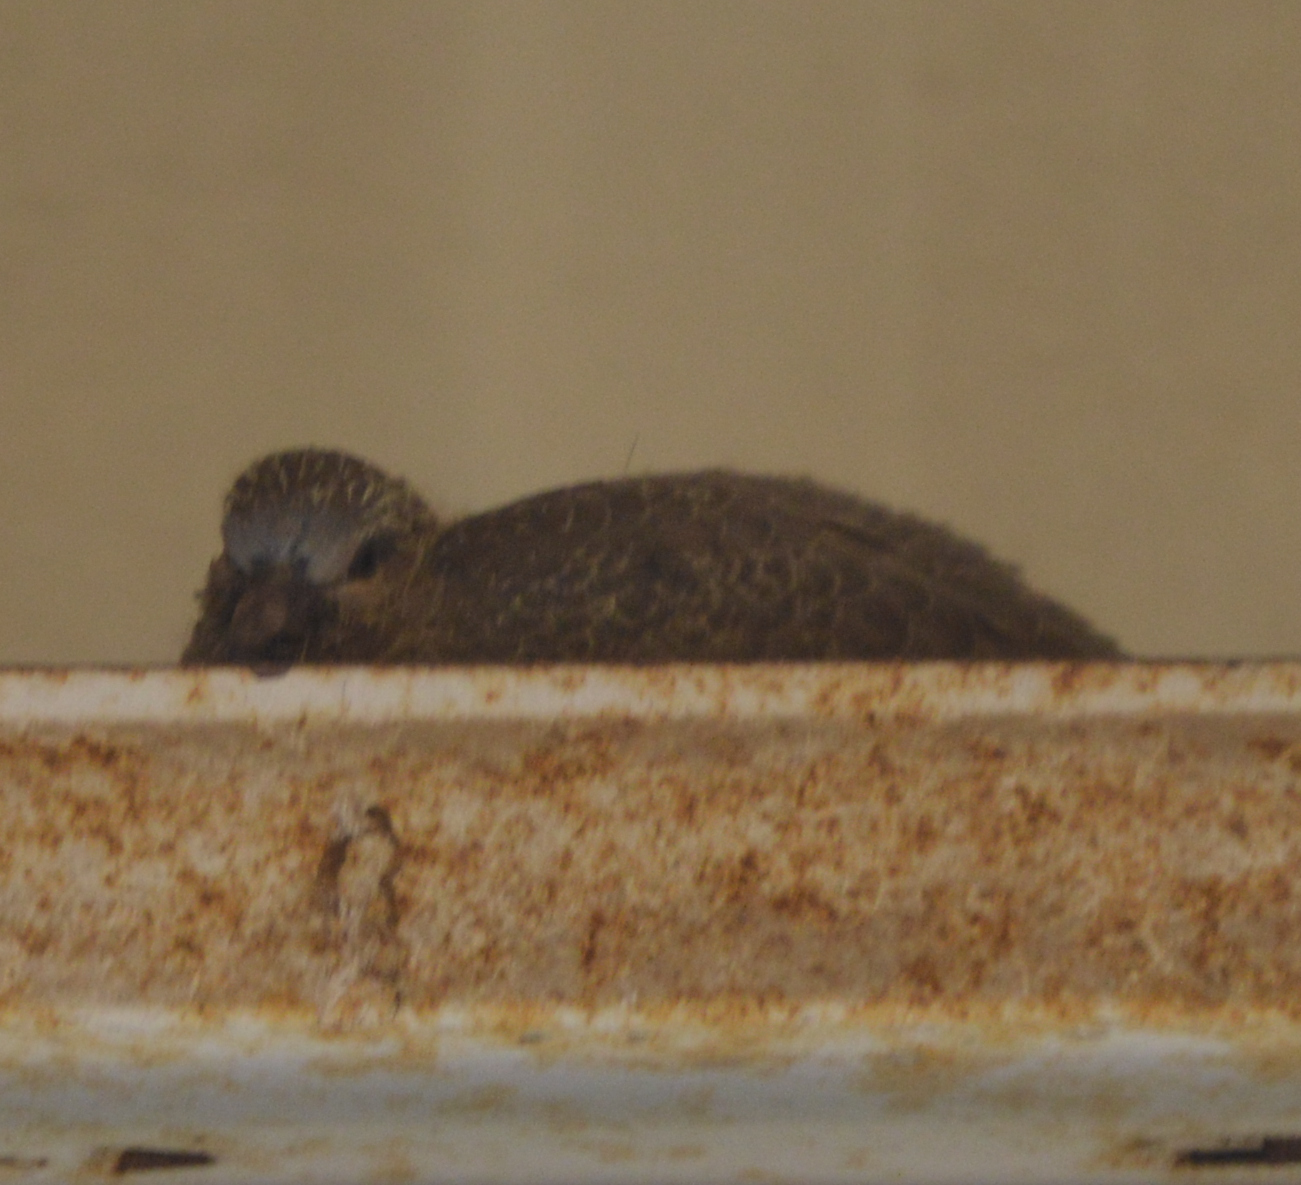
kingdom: Animalia
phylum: Chordata
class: Aves
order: Columbiformes
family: Columbidae
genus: Spilopelia
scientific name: Spilopelia senegalensis
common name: Laughing dove
